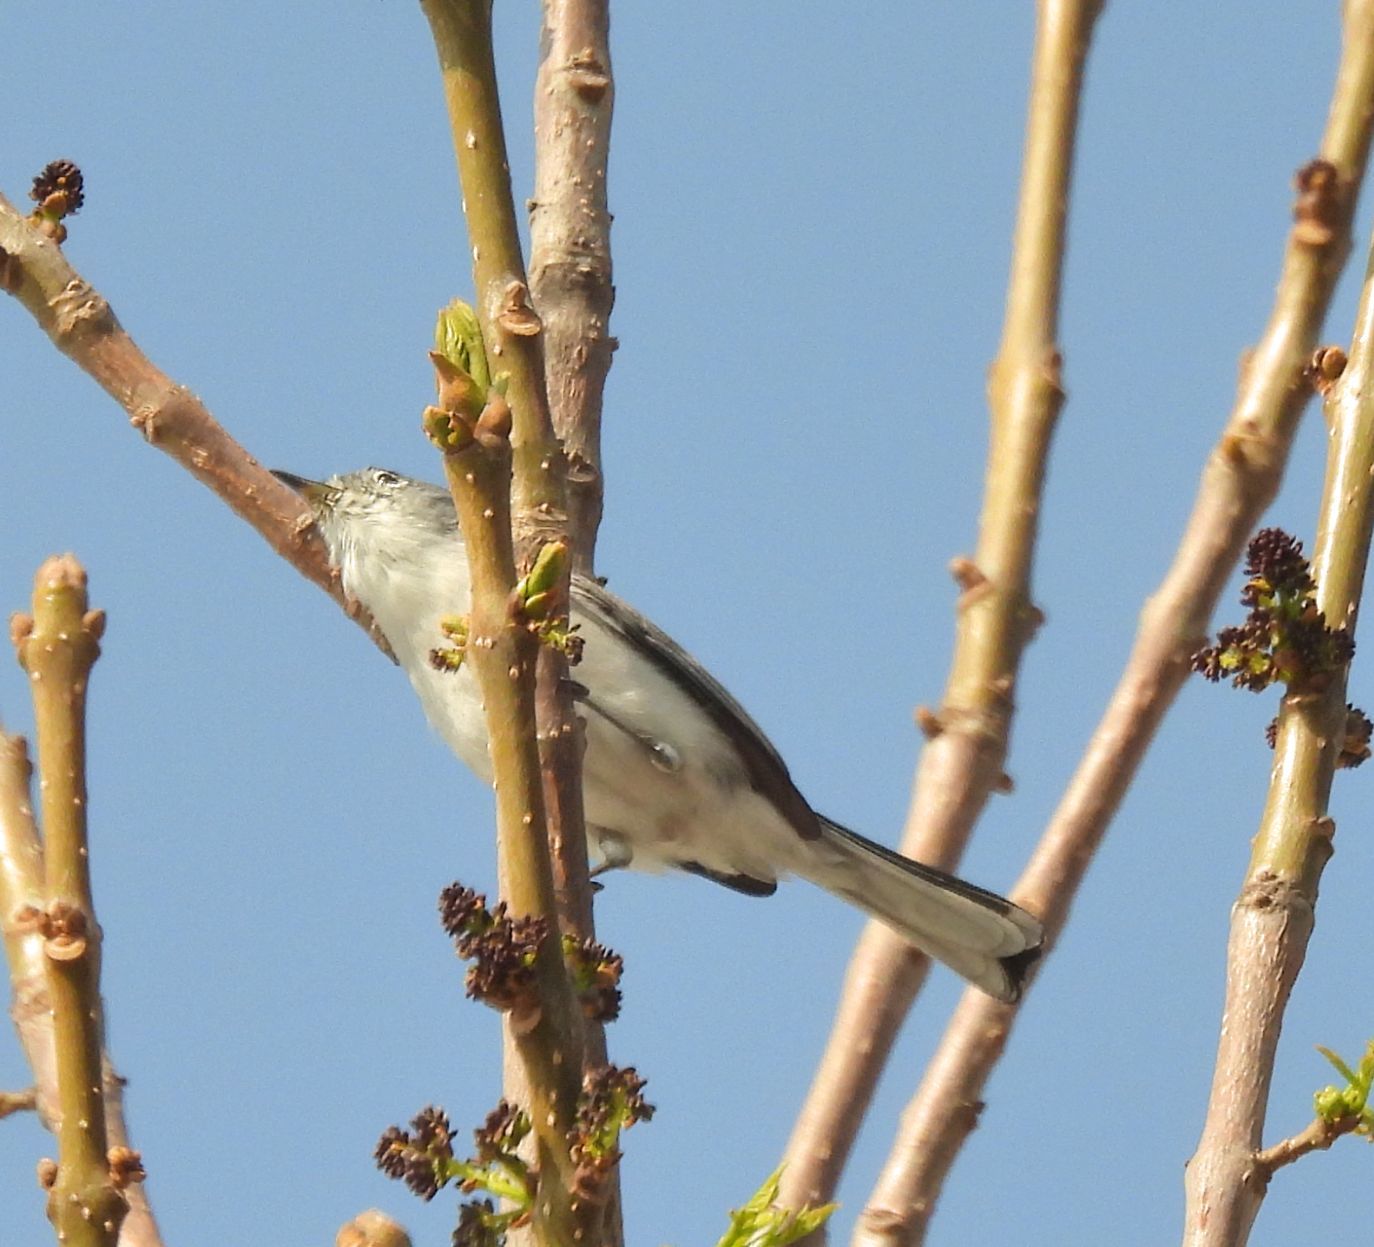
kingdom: Animalia
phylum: Chordata
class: Aves
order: Passeriformes
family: Polioptilidae
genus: Polioptila
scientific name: Polioptila caerulea
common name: Blue-gray gnatcatcher
